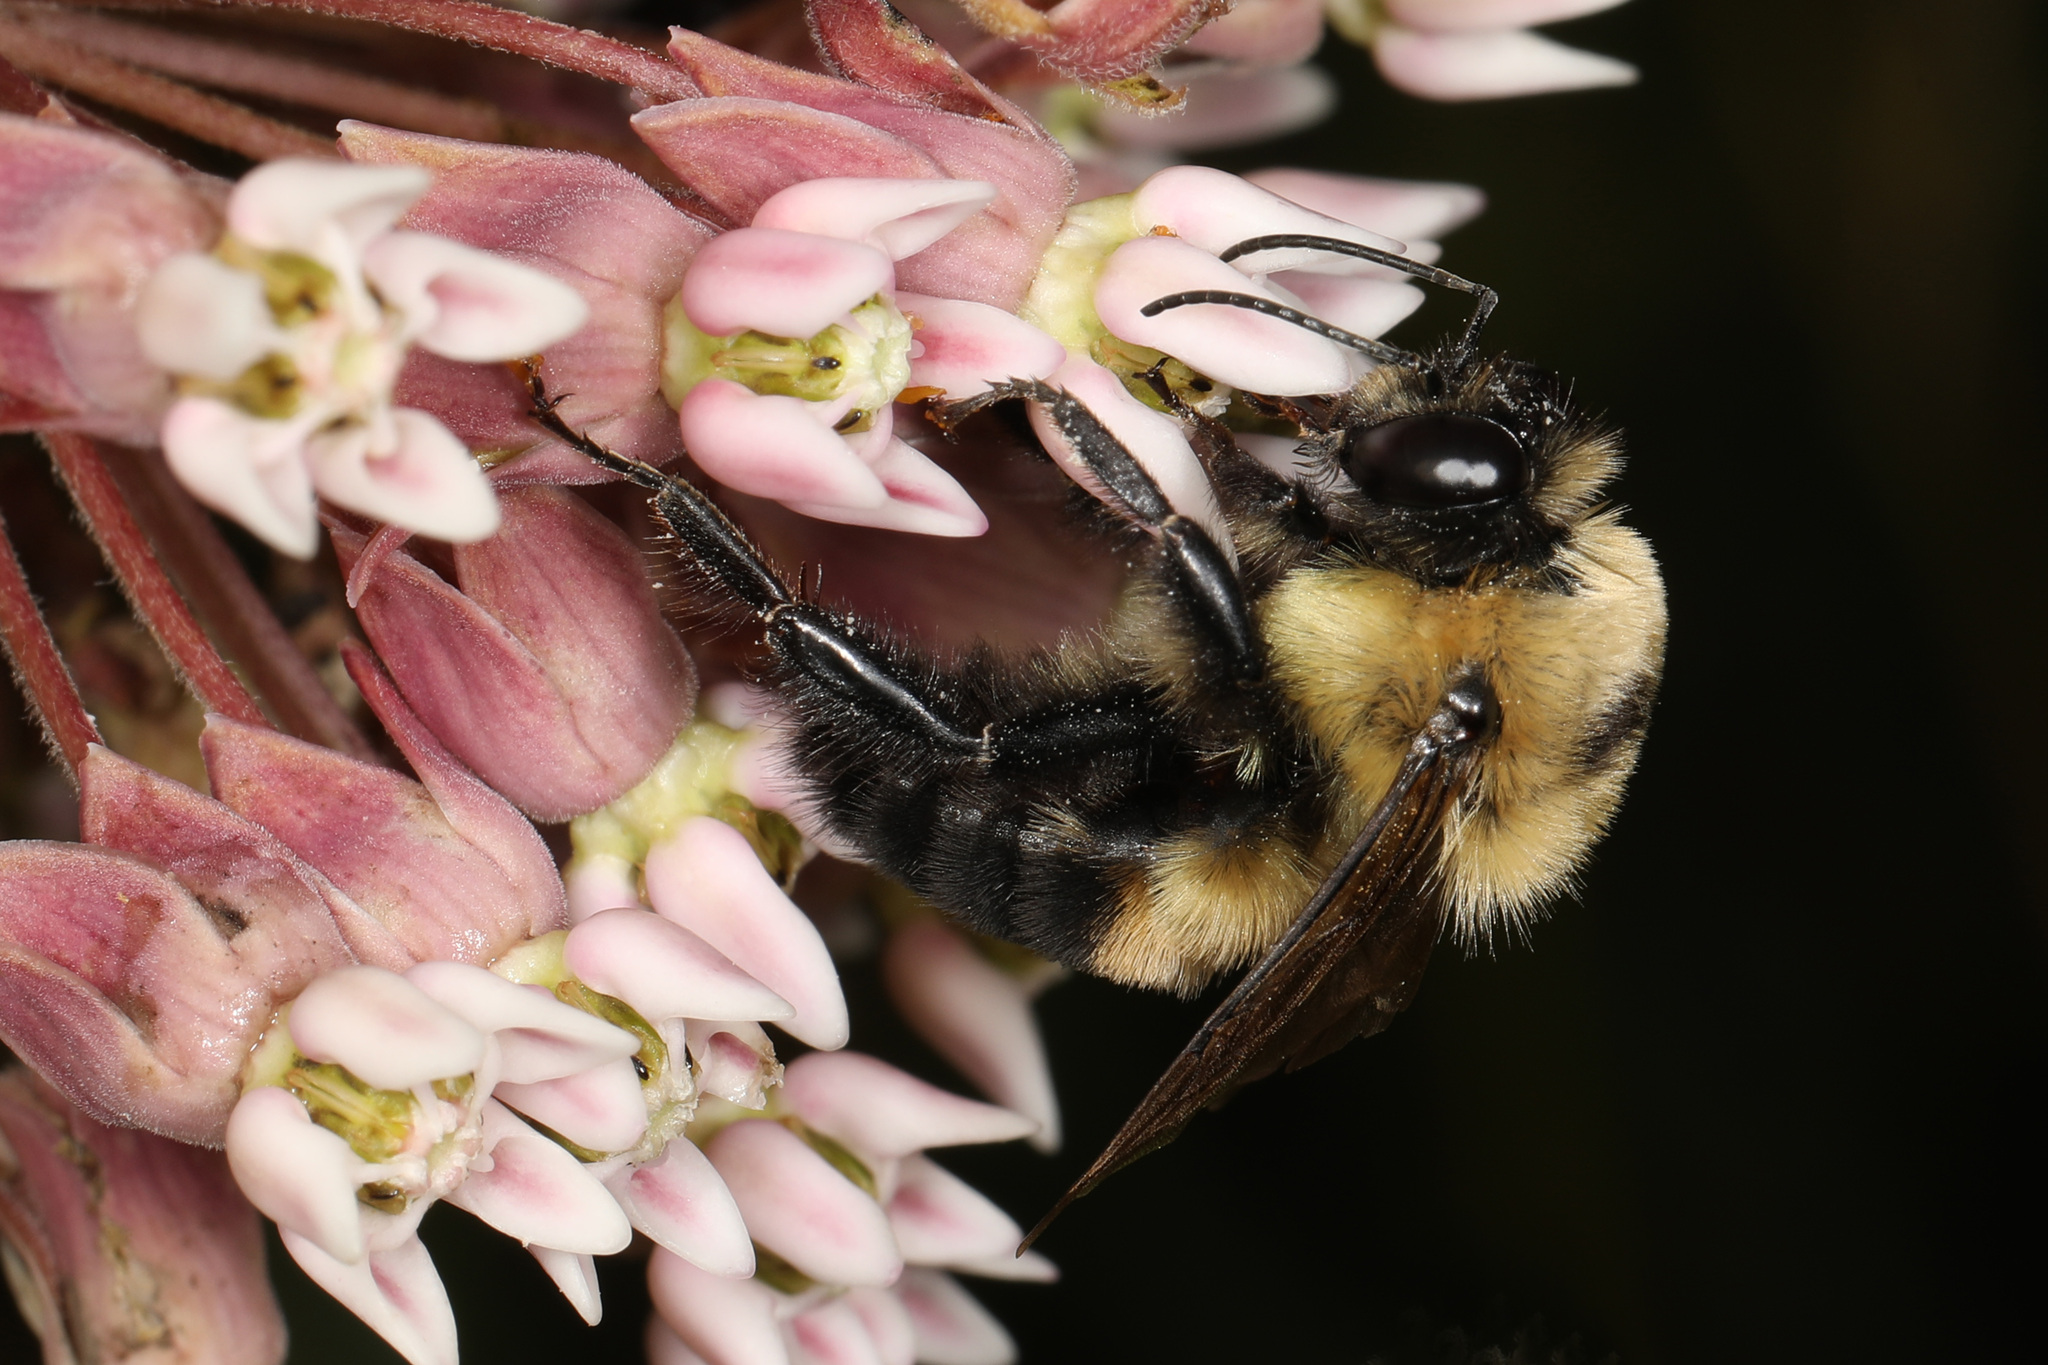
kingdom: Animalia
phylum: Arthropoda
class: Insecta
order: Hymenoptera
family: Apidae
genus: Bombus
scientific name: Bombus griseocollis
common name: Brown-belted bumble bee
